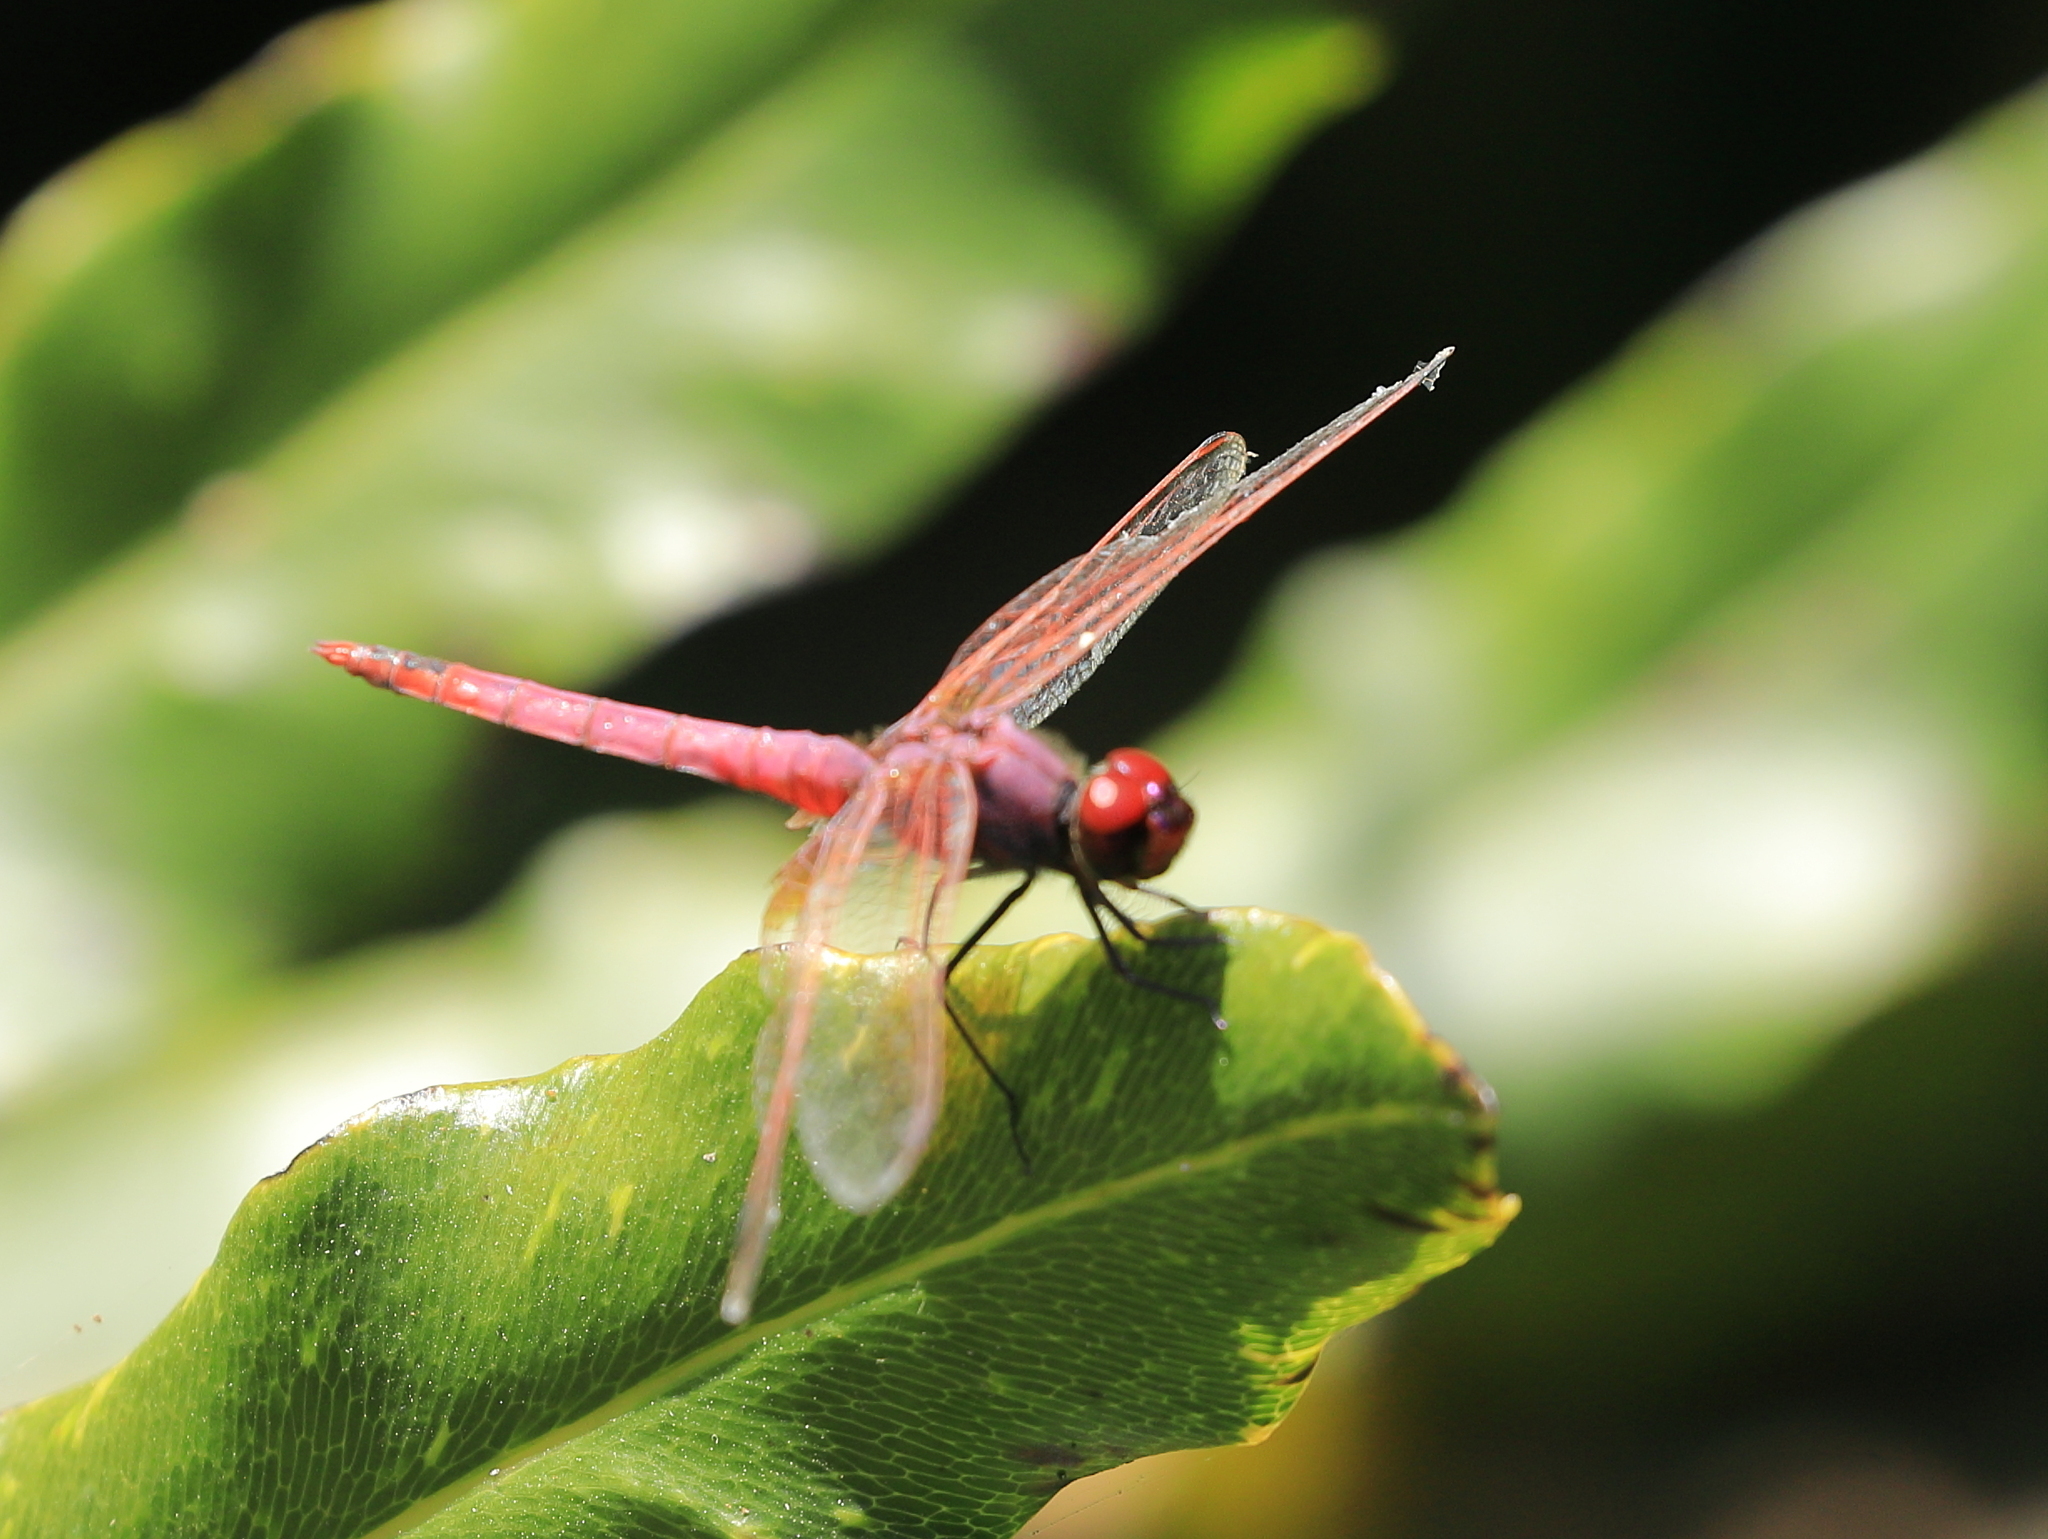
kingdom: Animalia
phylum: Arthropoda
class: Insecta
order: Odonata
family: Libellulidae
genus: Trithemis
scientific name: Trithemis annulata
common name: Violet dropwing
